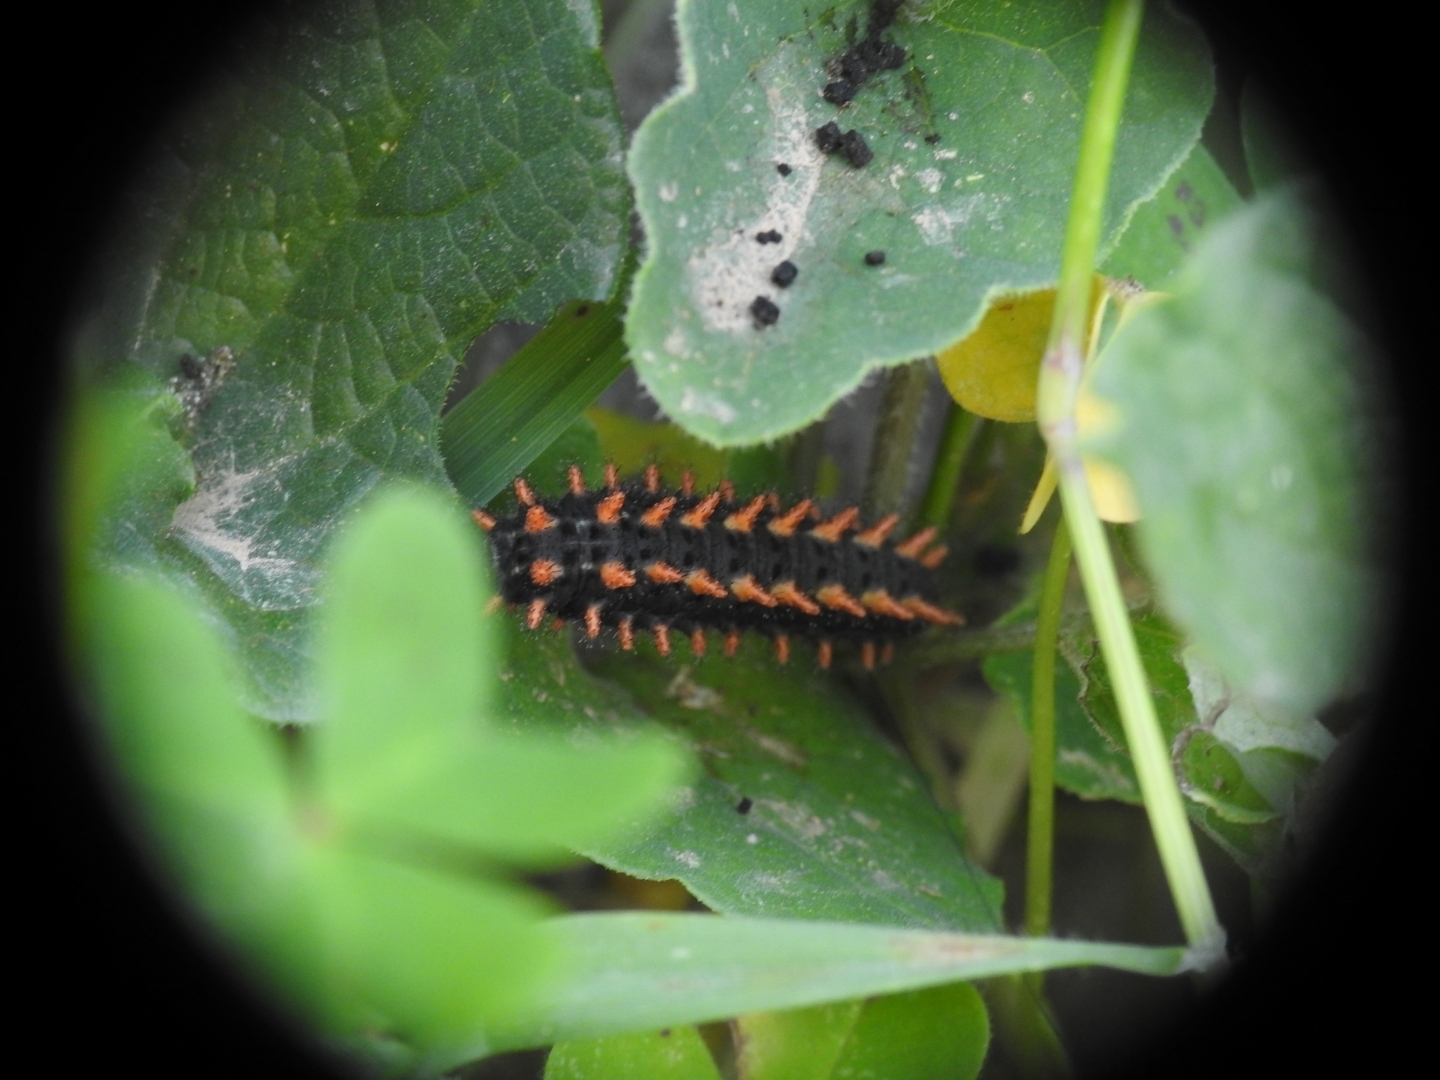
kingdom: Animalia
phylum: Arthropoda
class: Insecta
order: Lepidoptera
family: Papilionidae
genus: Zerynthia
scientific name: Zerynthia cretica
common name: Cretan festoon
